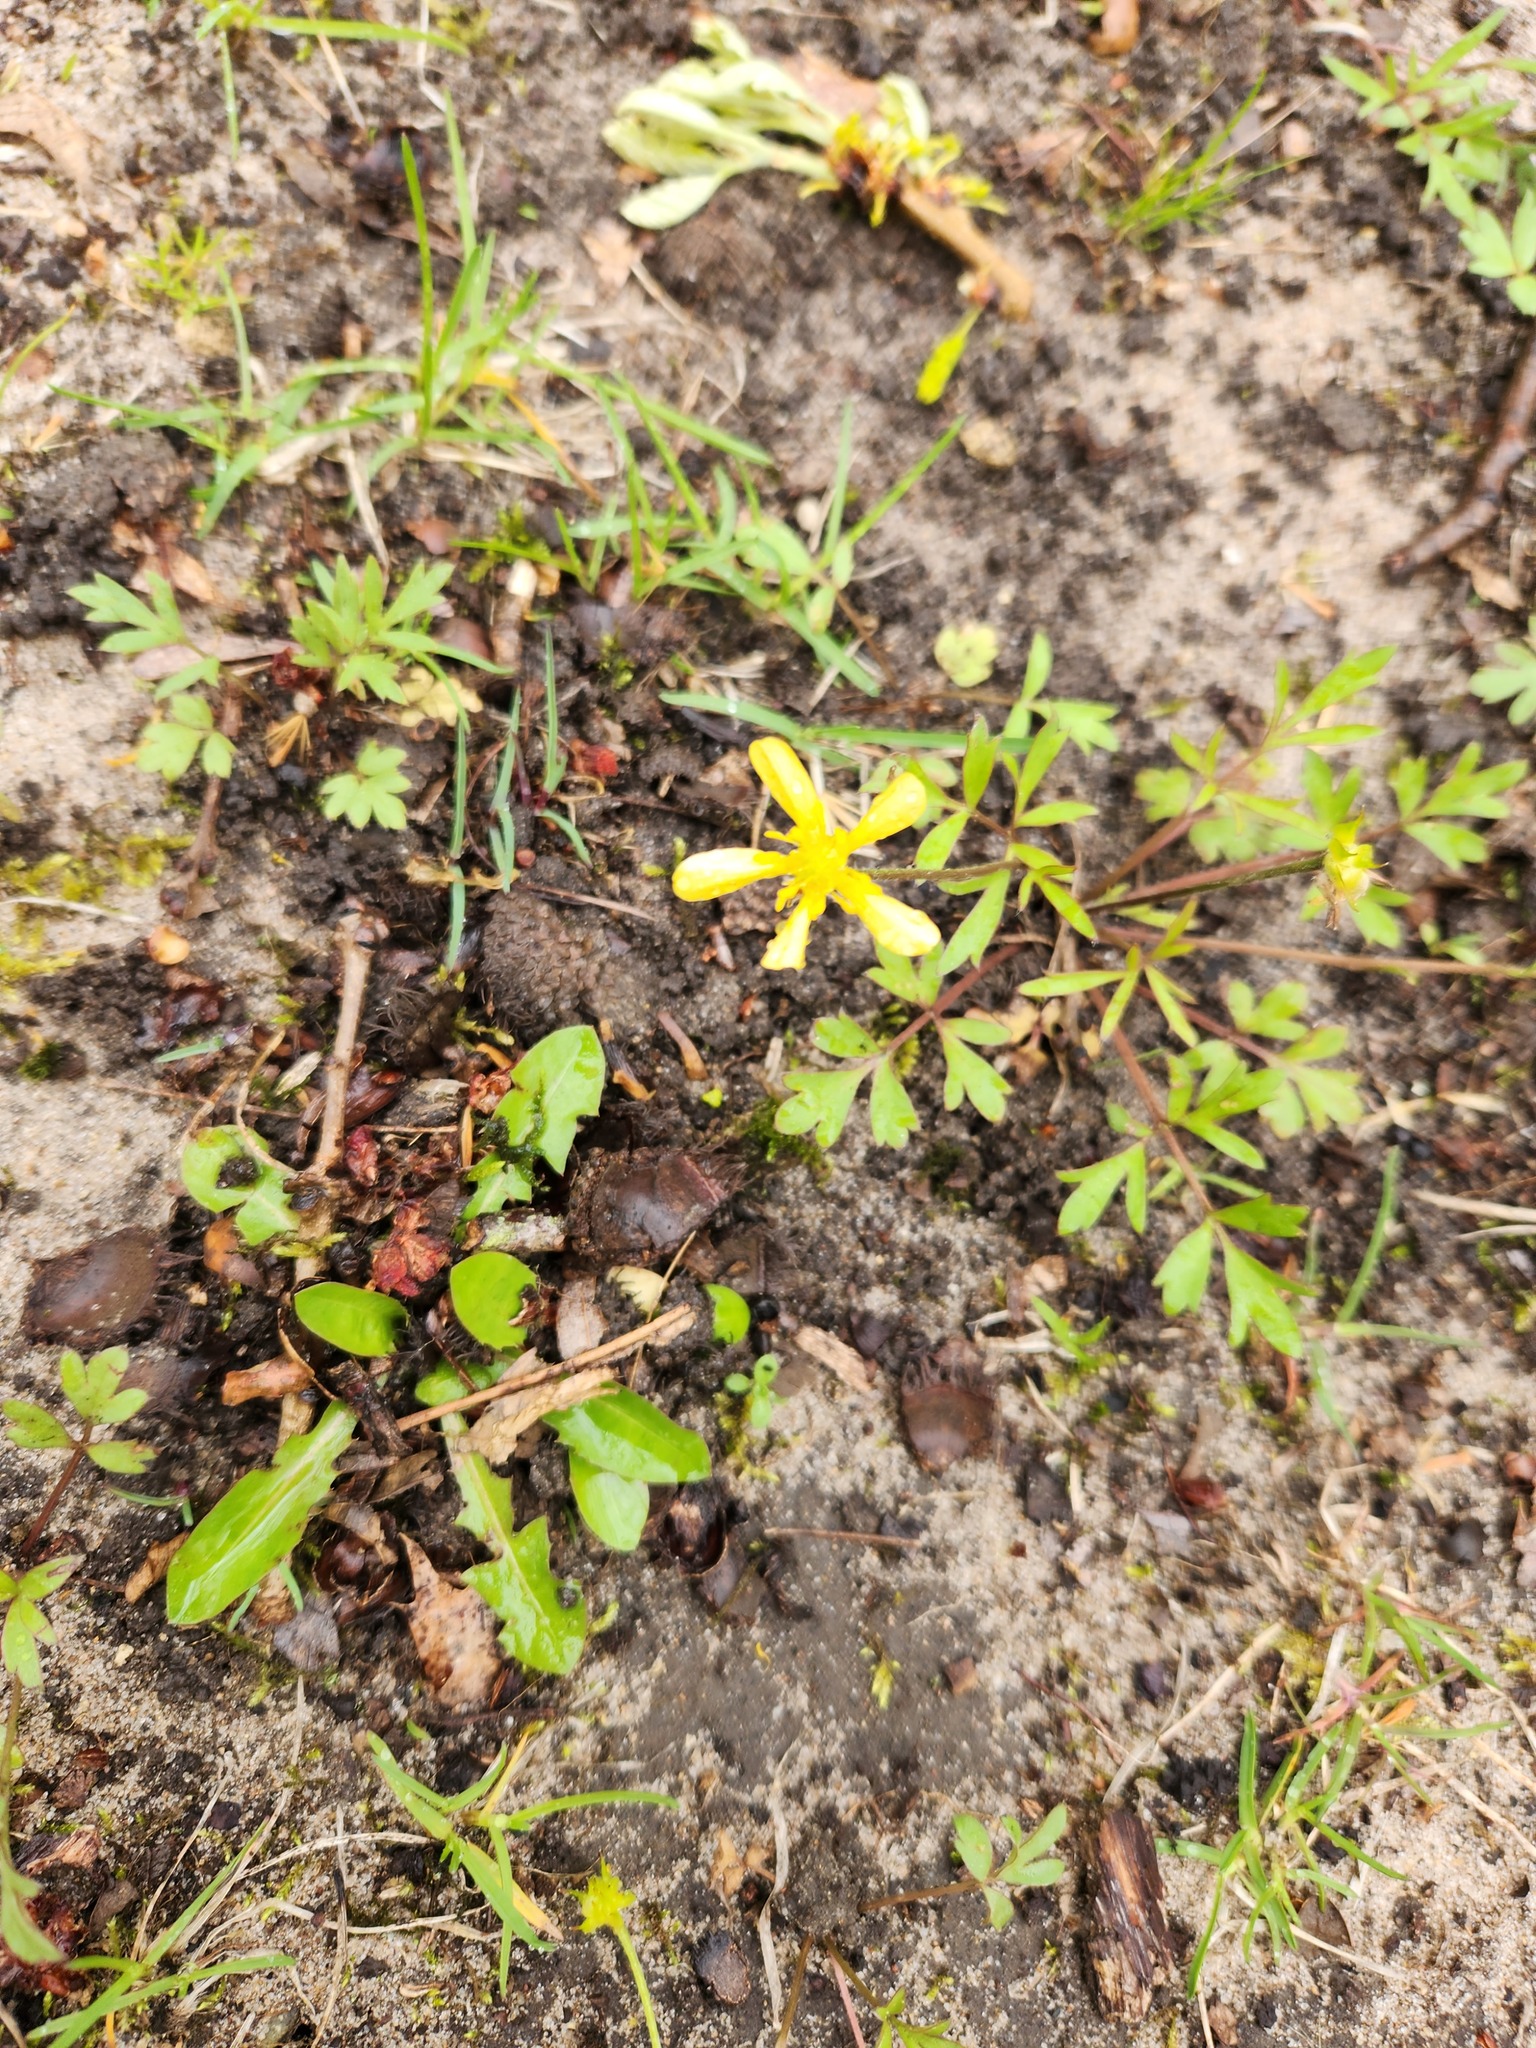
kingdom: Plantae
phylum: Tracheophyta
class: Magnoliopsida
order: Ranunculales
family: Ranunculaceae
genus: Ranunculus
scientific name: Ranunculus fascicularis
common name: Early buttercup
